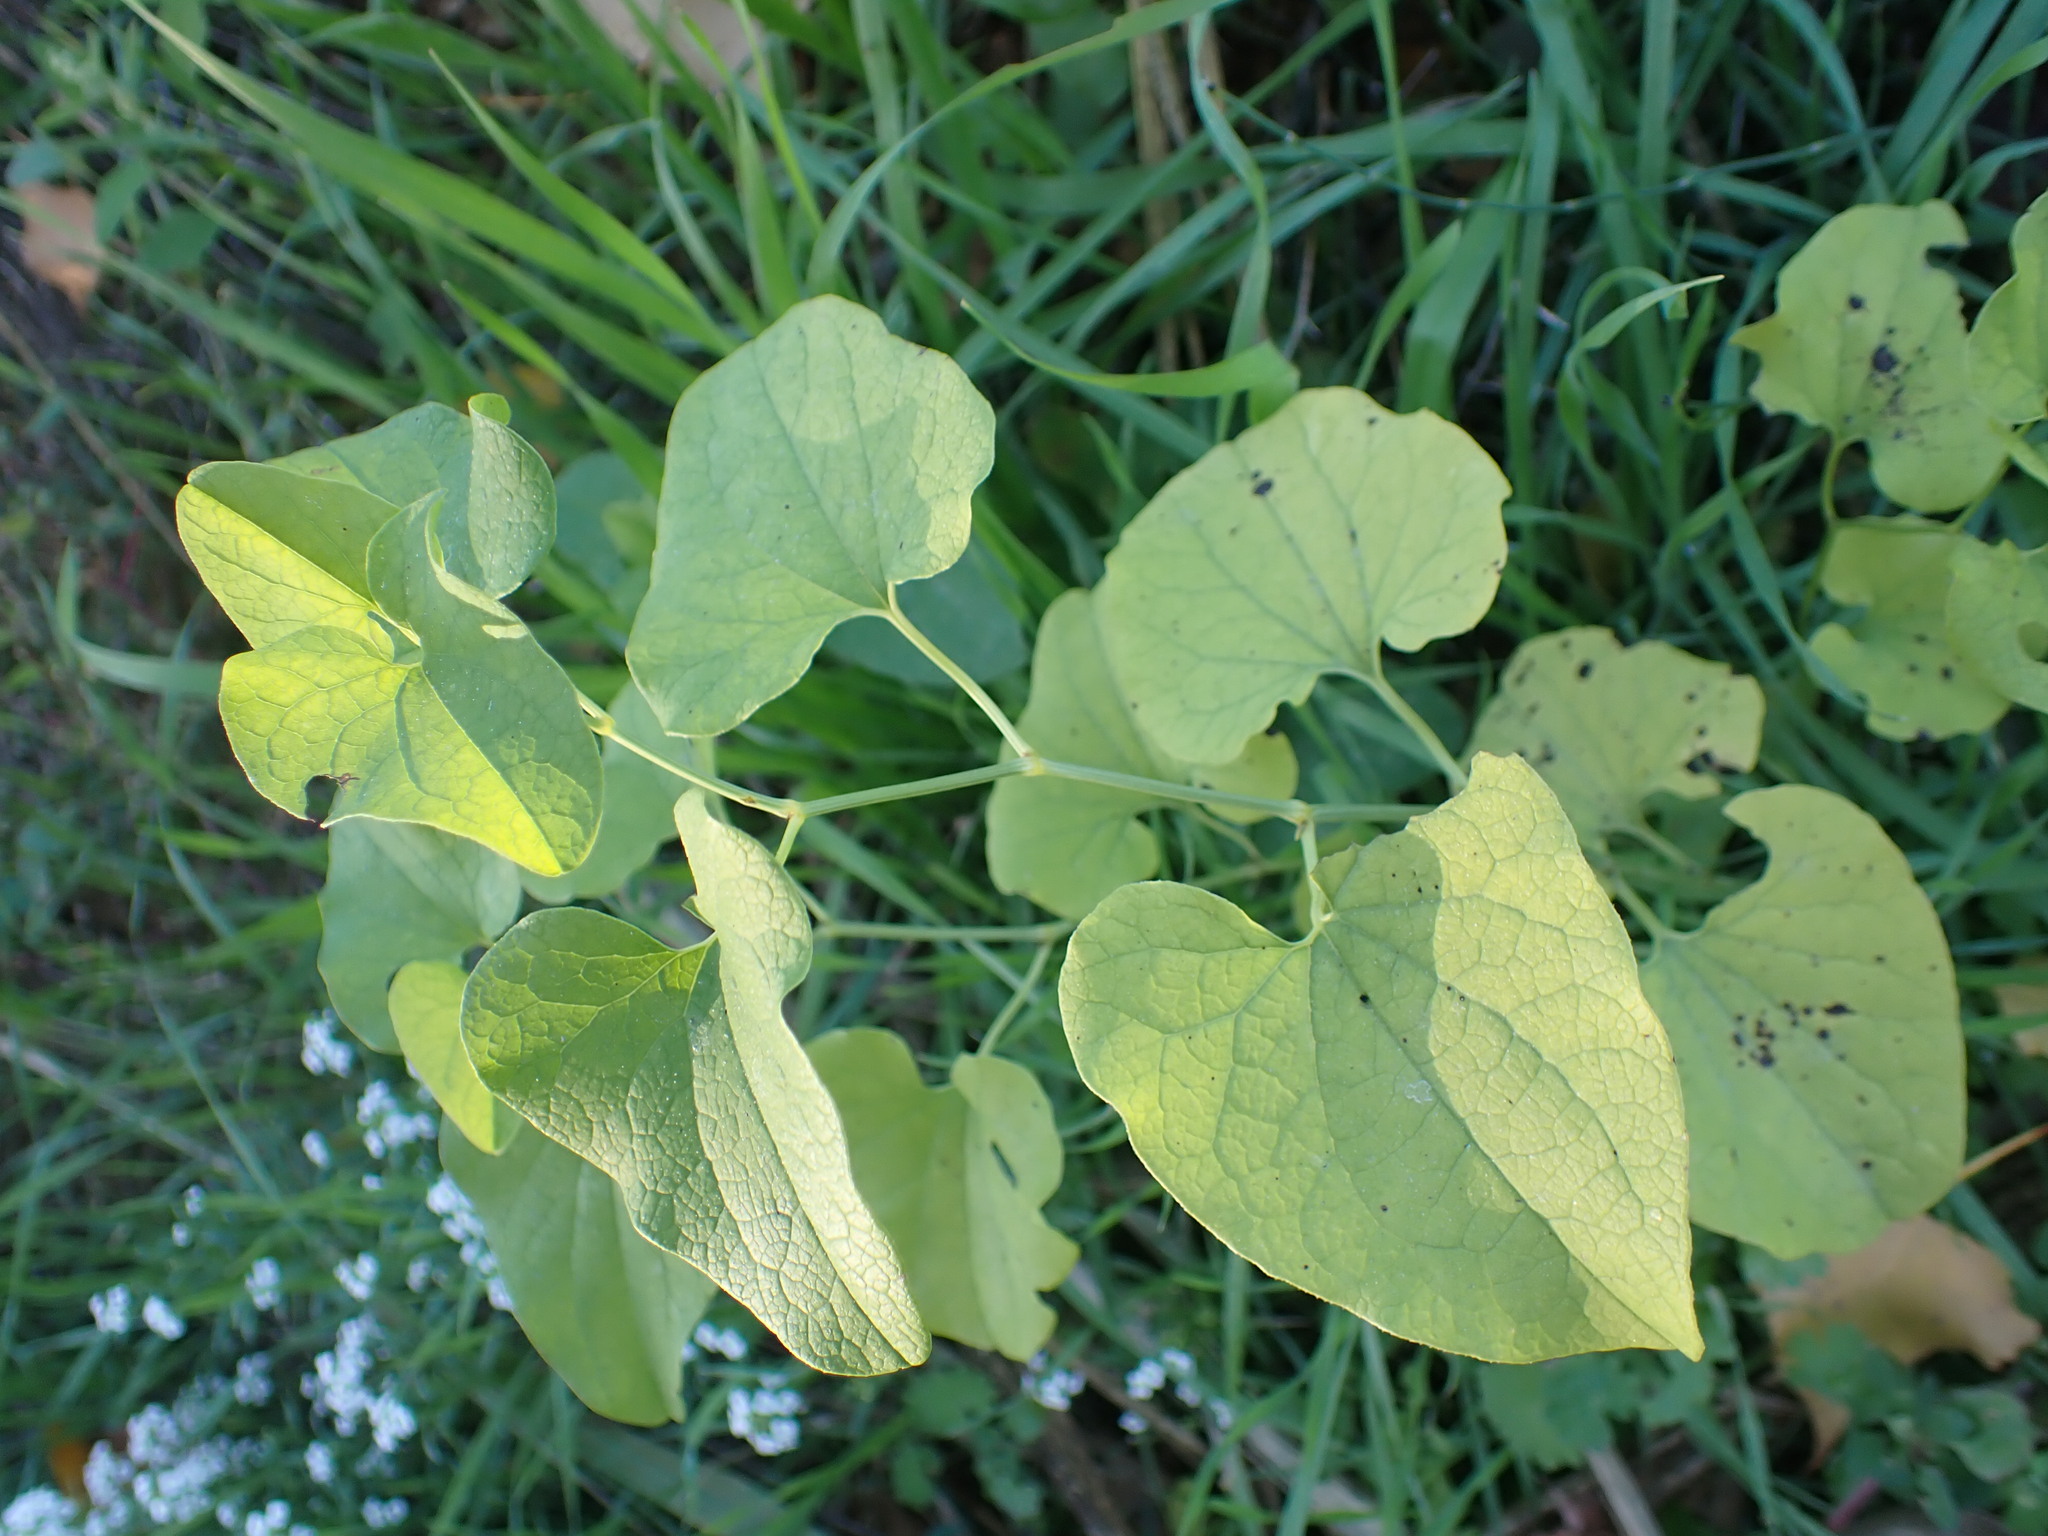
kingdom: Plantae
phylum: Tracheophyta
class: Magnoliopsida
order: Piperales
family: Aristolochiaceae
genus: Aristolochia
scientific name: Aristolochia clematitis
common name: Birthwort
